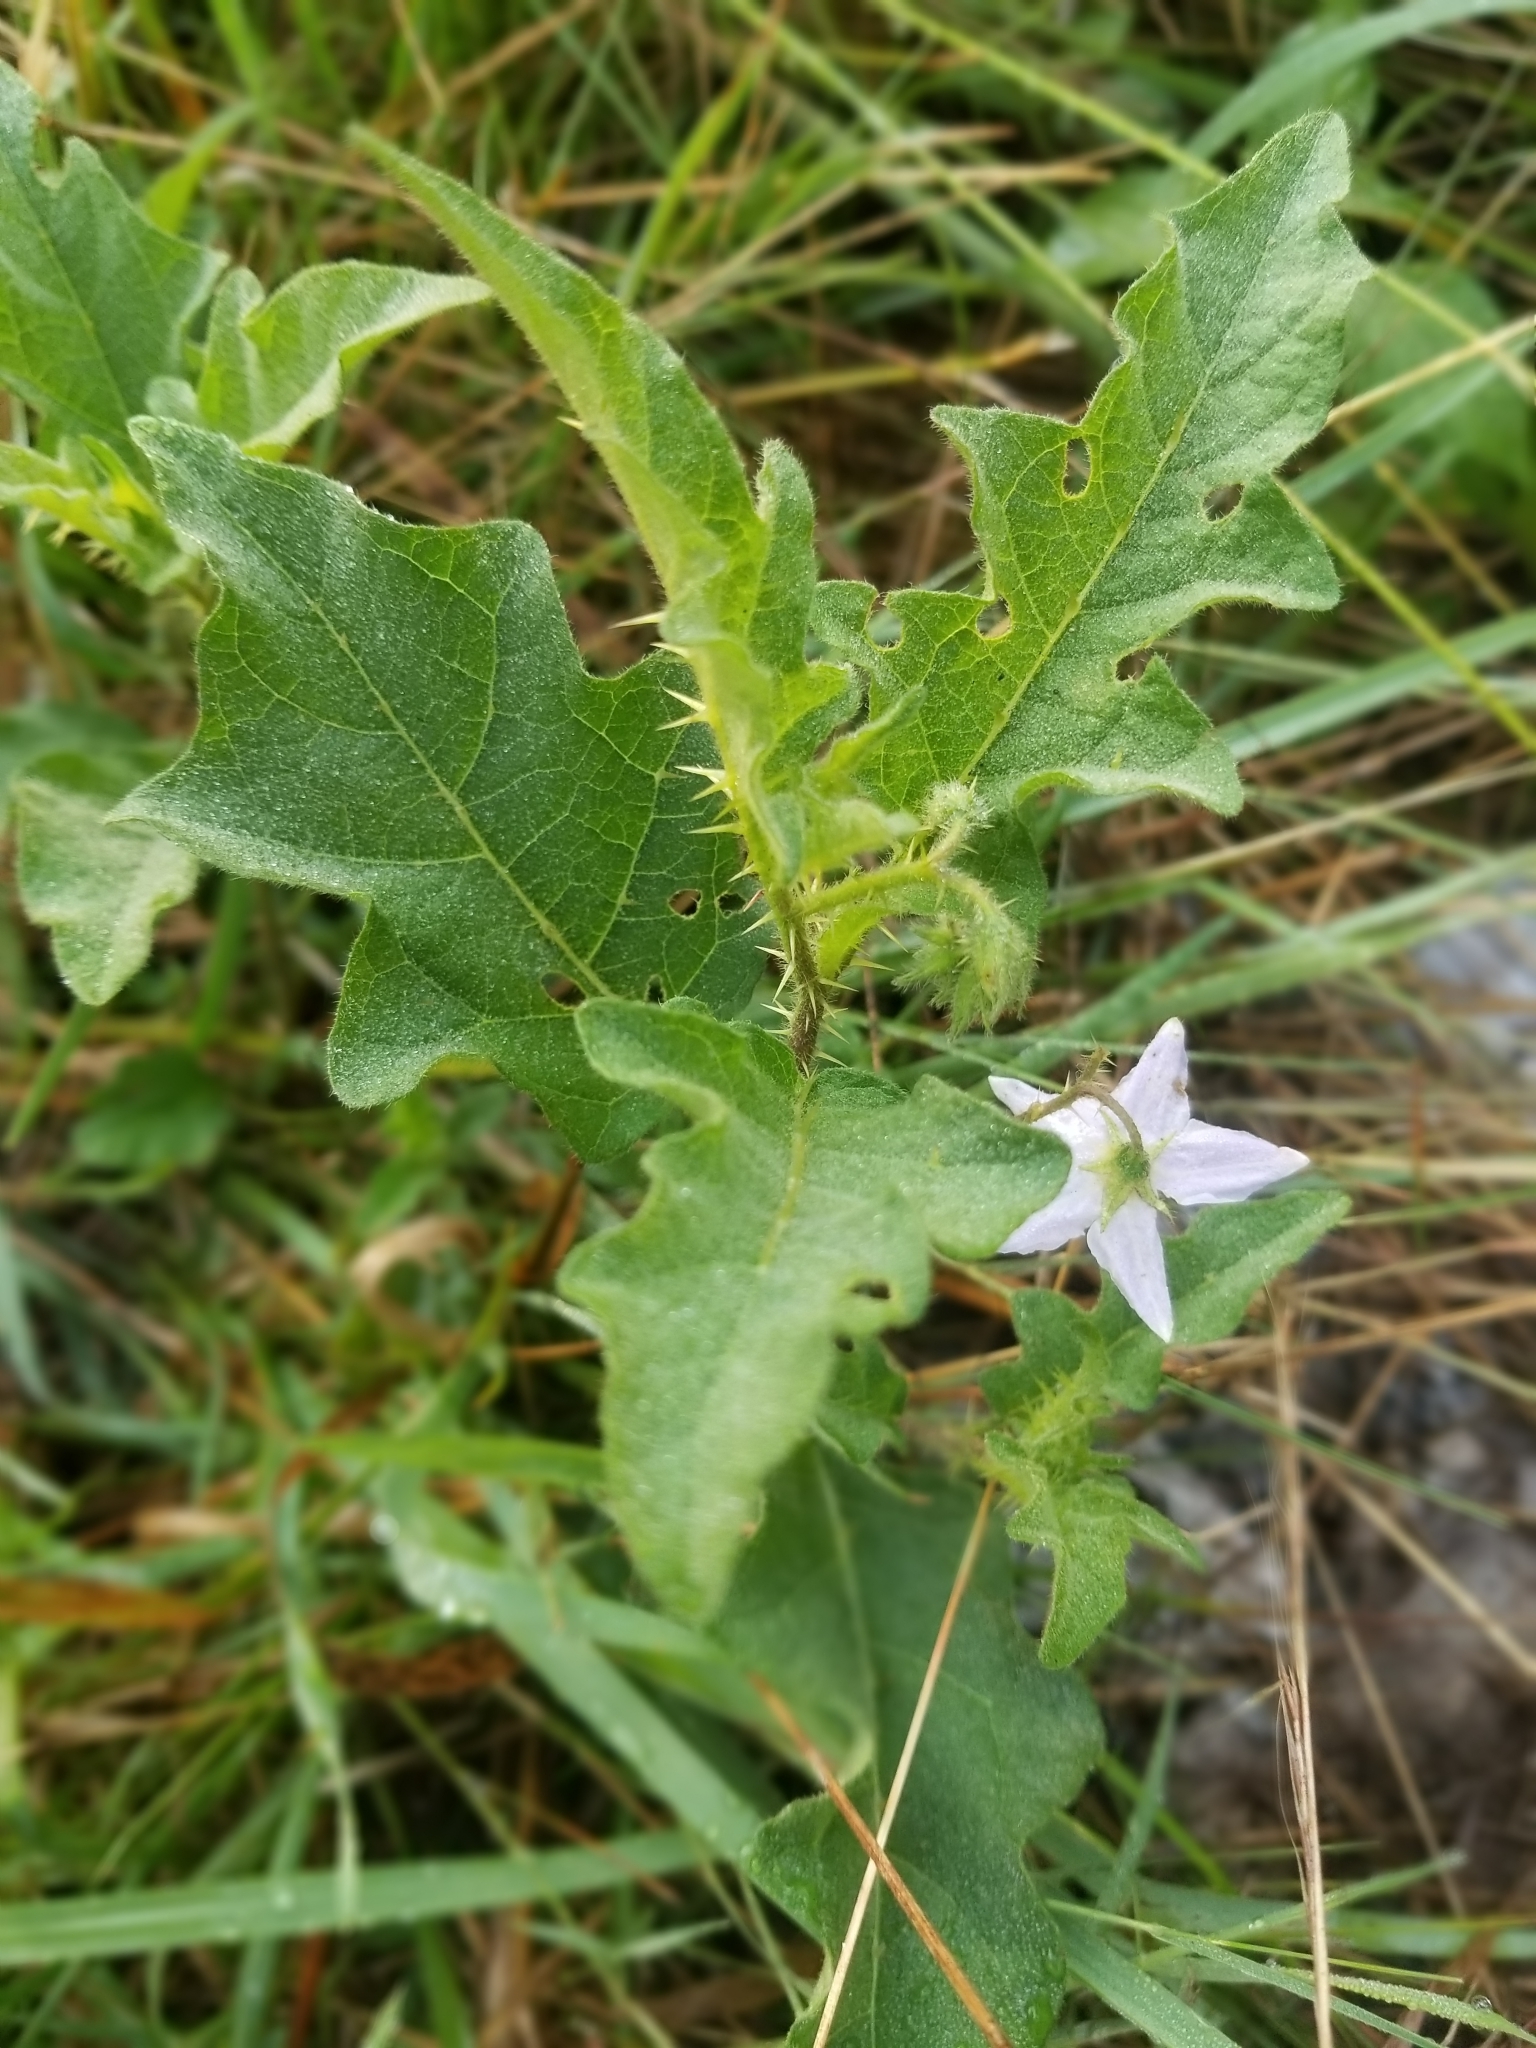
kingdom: Plantae
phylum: Tracheophyta
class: Magnoliopsida
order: Solanales
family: Solanaceae
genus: Solanum
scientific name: Solanum carolinense
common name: Horse-nettle
